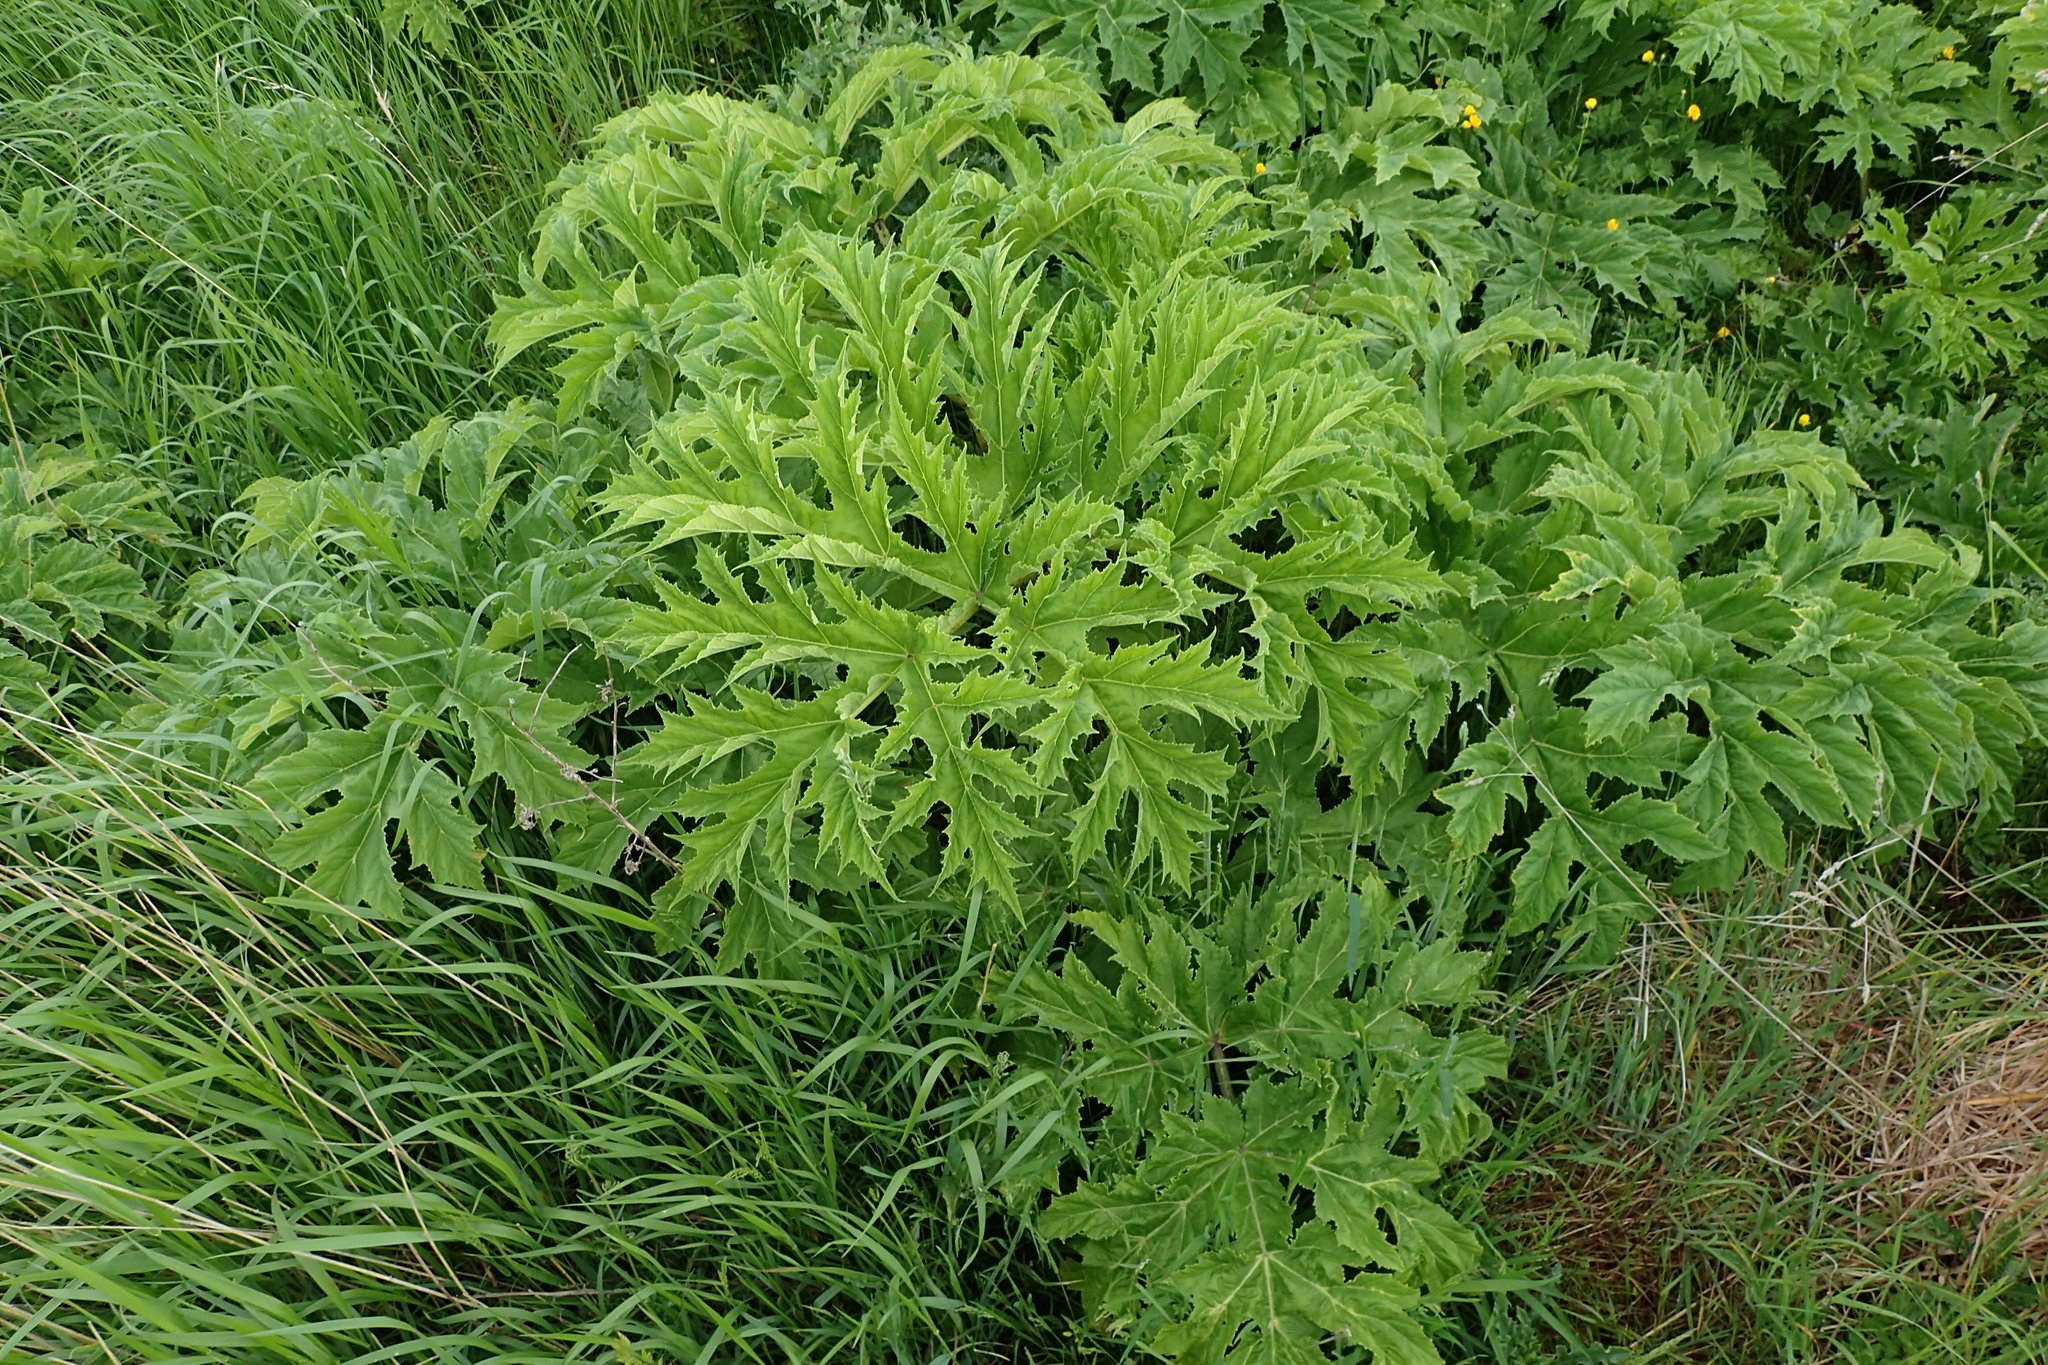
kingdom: Plantae
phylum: Tracheophyta
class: Magnoliopsida
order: Apiales
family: Apiaceae
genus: Heracleum
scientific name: Heracleum mantegazzianum
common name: Giant hogweed
